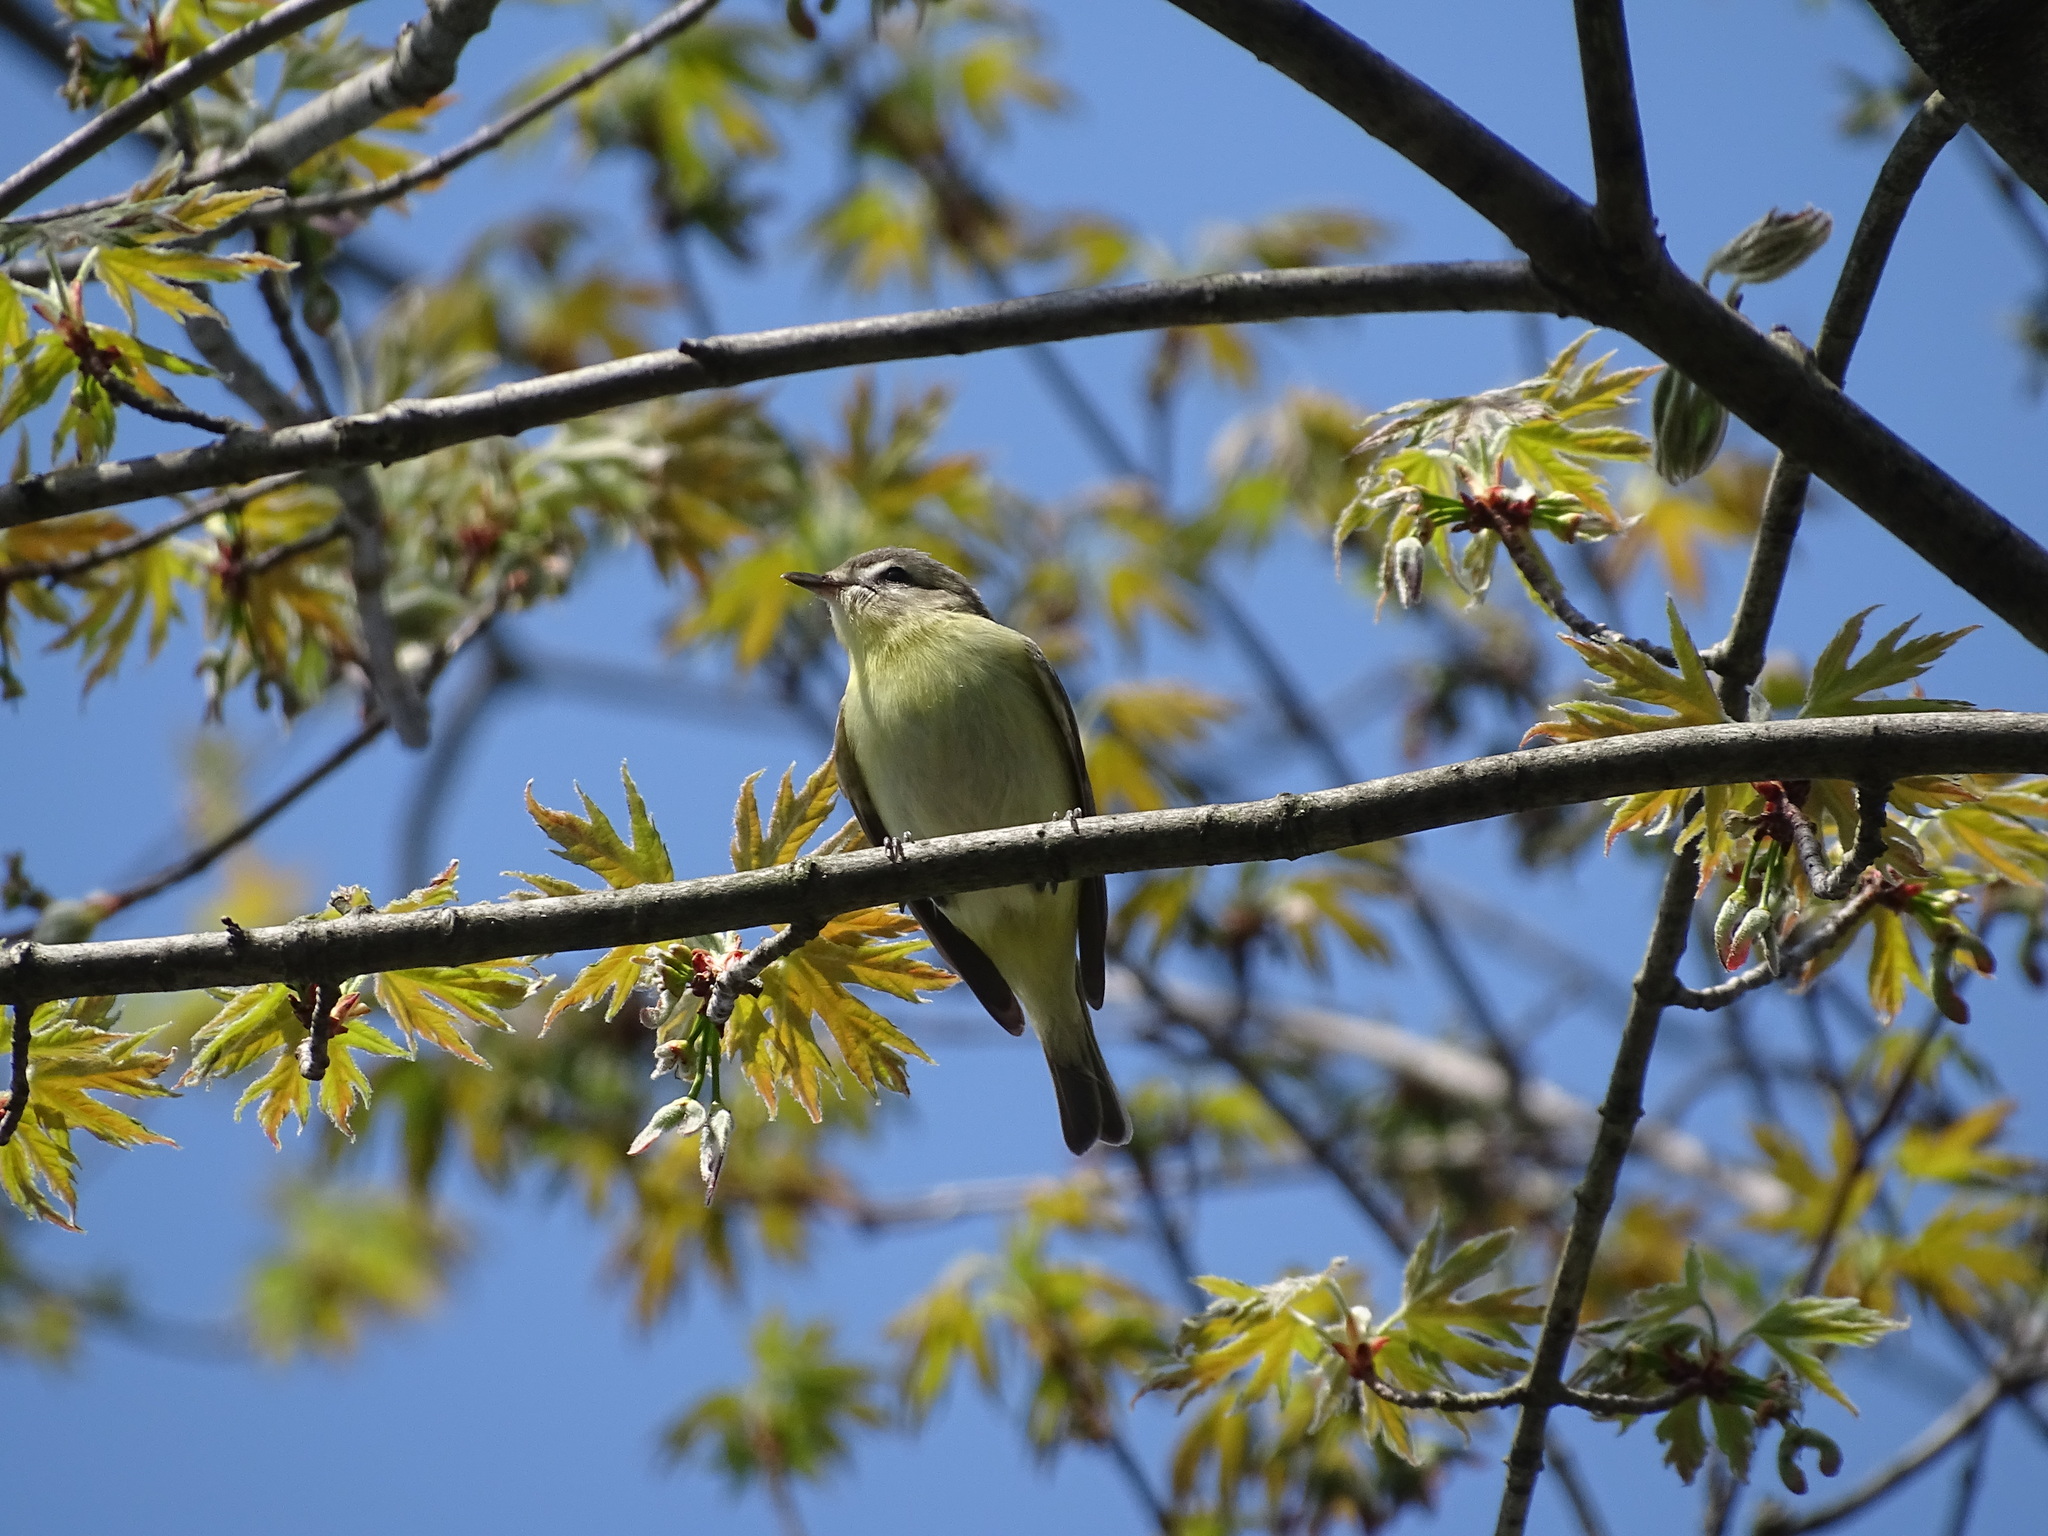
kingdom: Animalia
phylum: Chordata
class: Aves
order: Passeriformes
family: Vireonidae
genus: Vireo
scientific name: Vireo philadelphicus
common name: Philadelphia vireo
